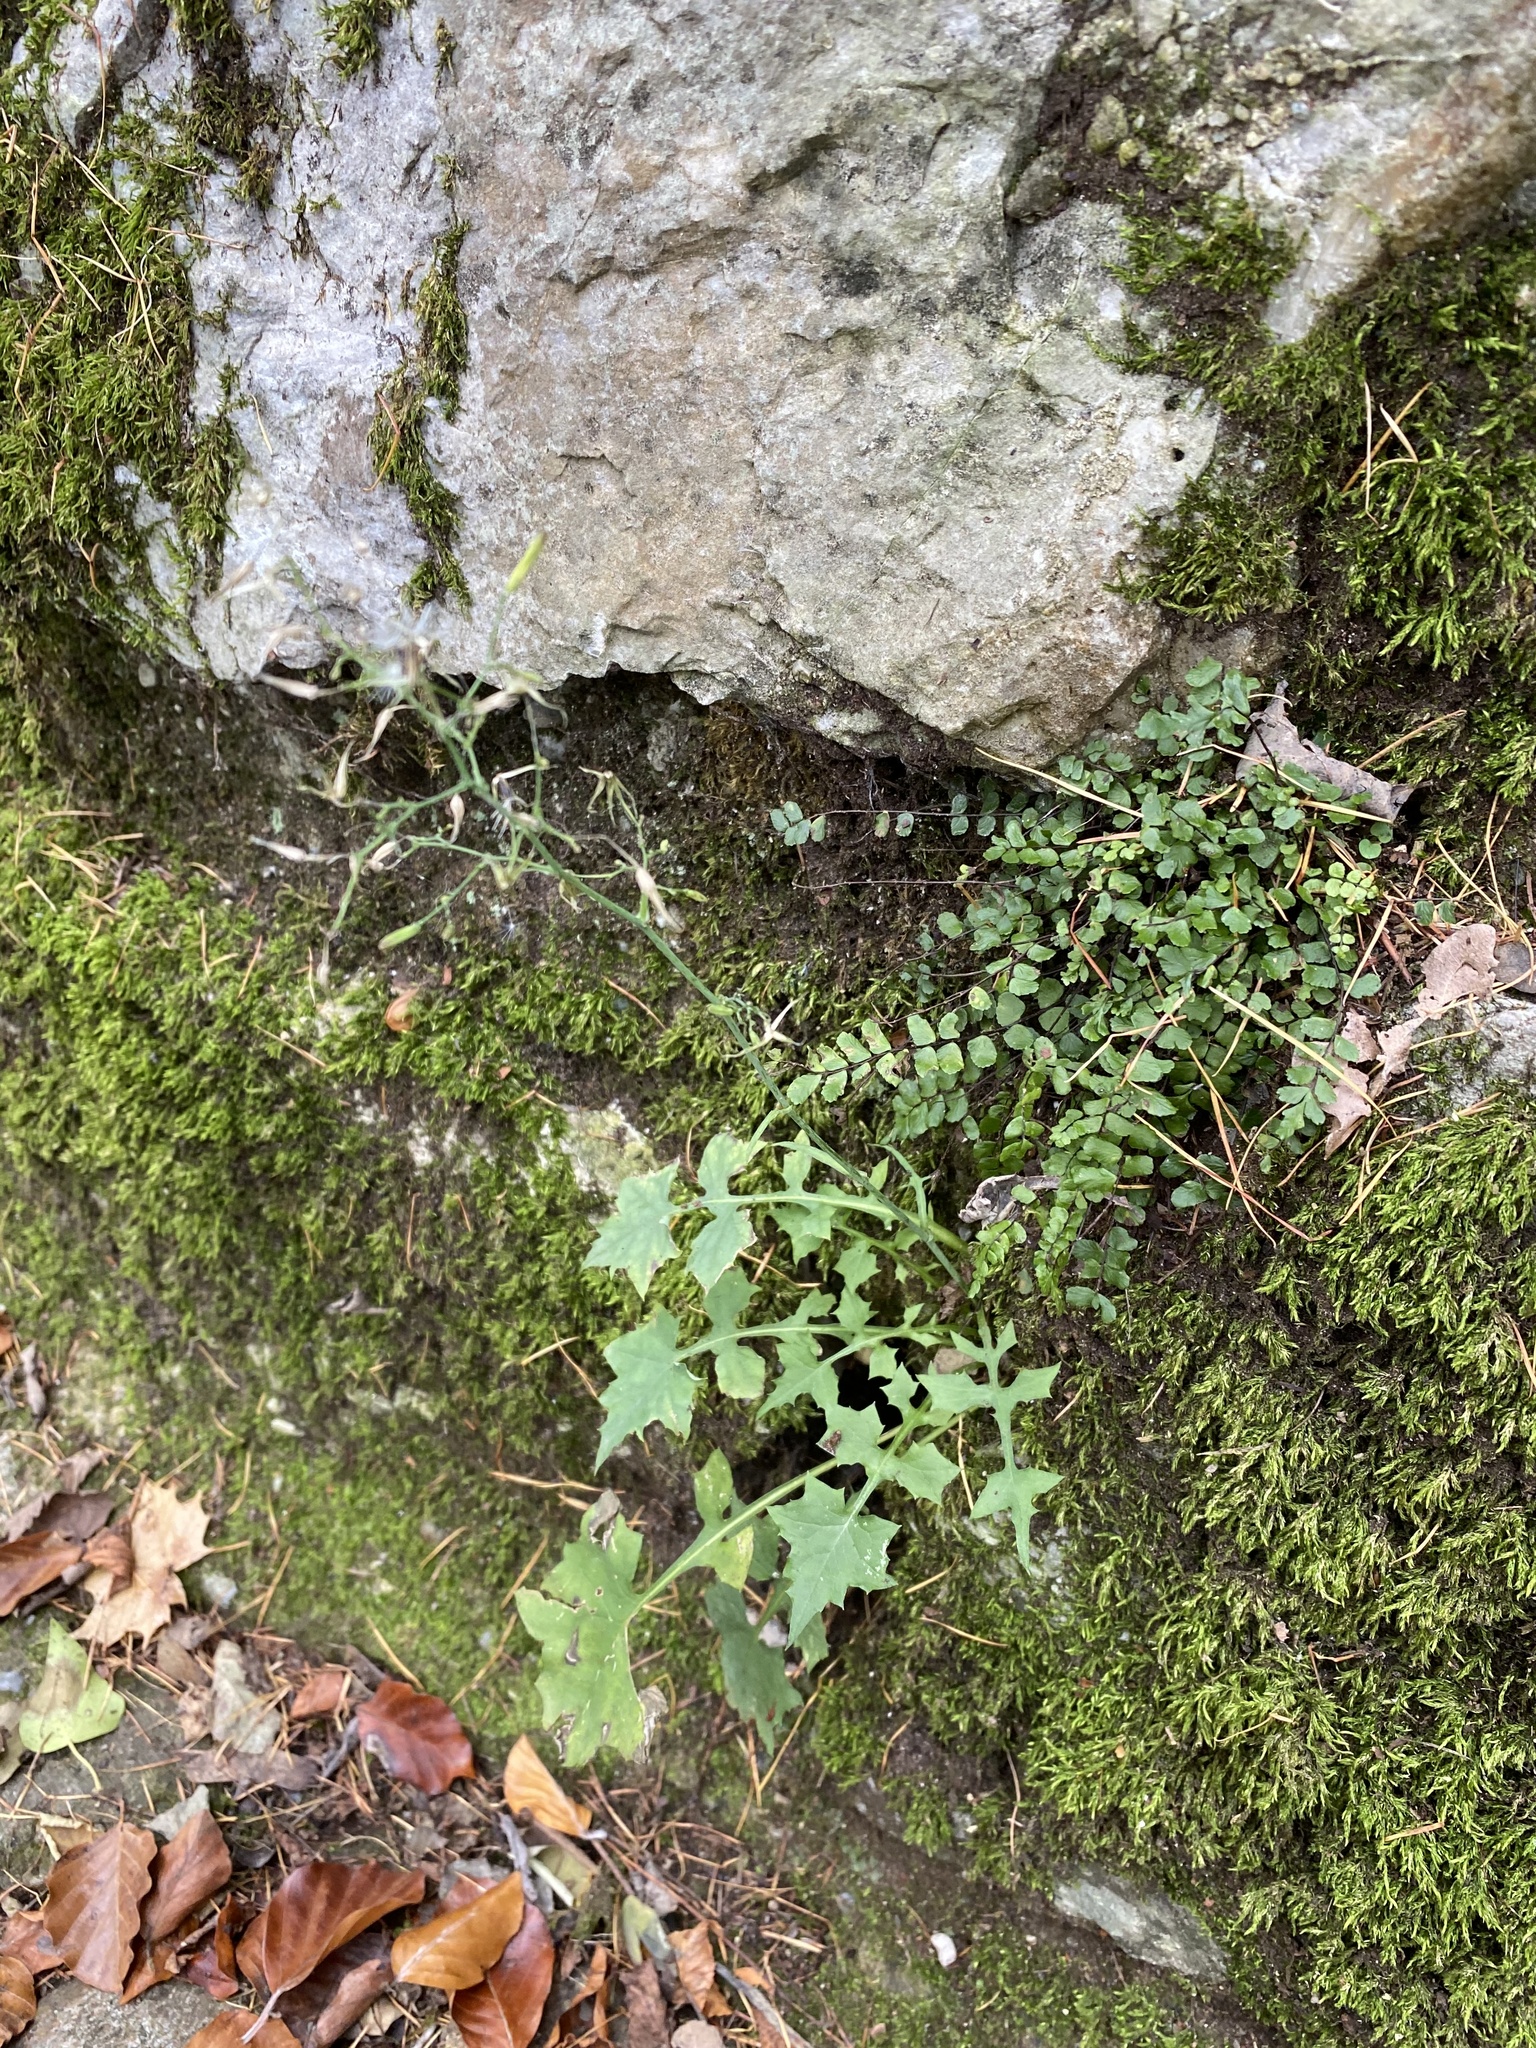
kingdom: Plantae
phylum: Tracheophyta
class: Magnoliopsida
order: Asterales
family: Asteraceae
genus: Mycelis
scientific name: Mycelis muralis
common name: Wall lettuce
